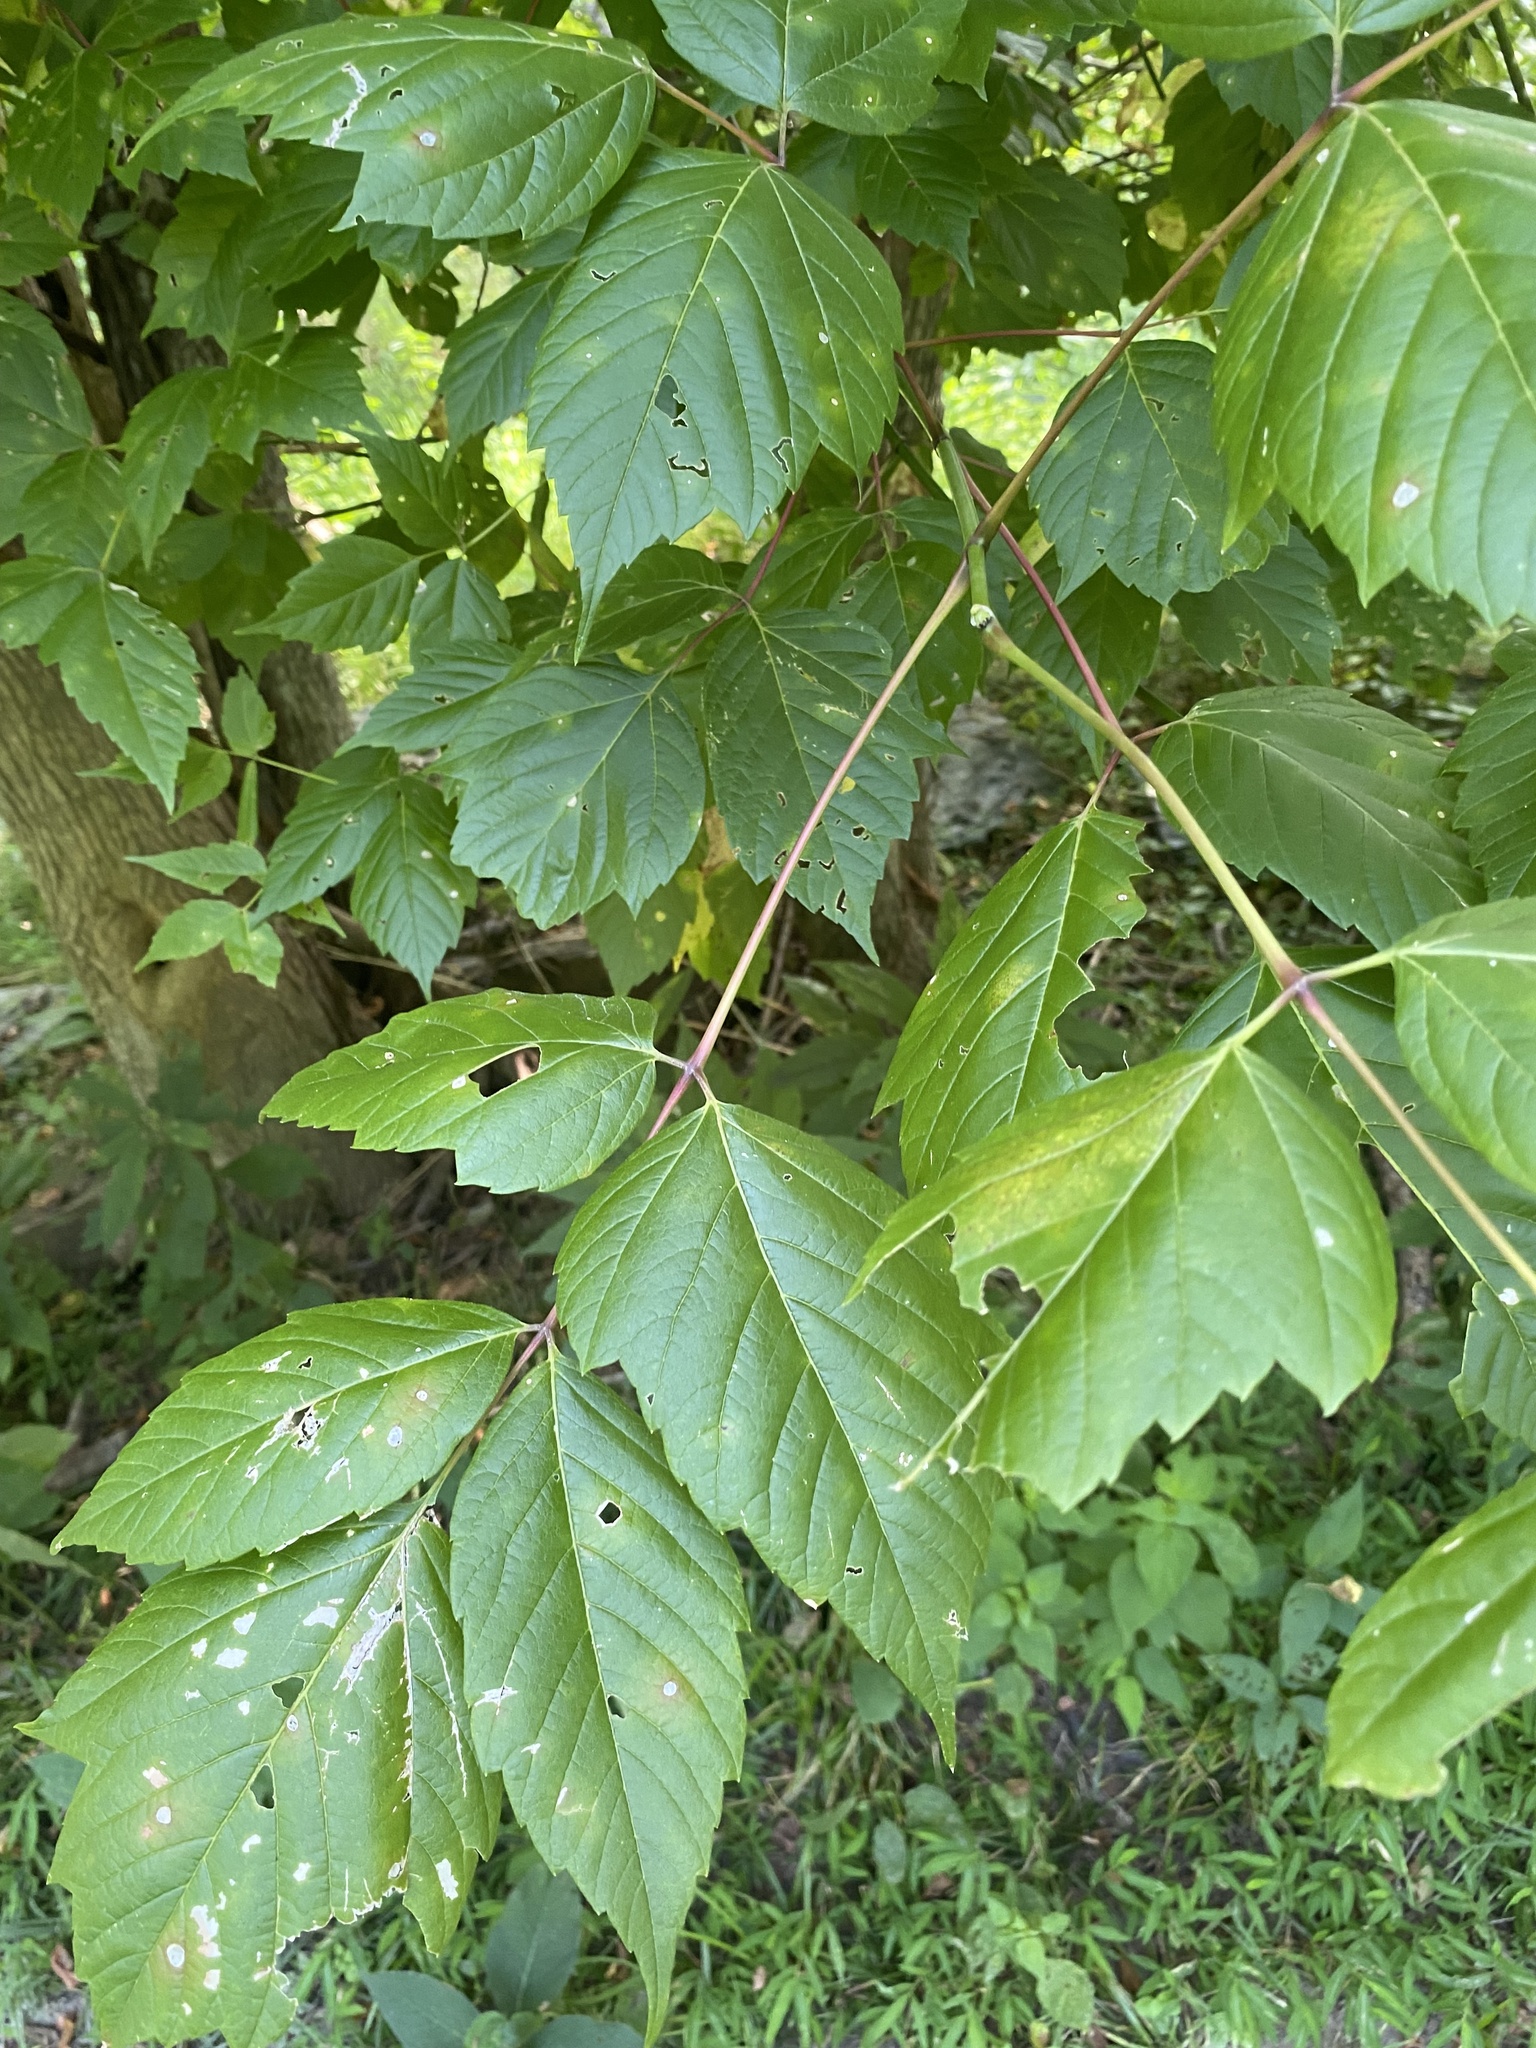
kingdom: Plantae
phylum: Tracheophyta
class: Magnoliopsida
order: Sapindales
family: Sapindaceae
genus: Acer
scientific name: Acer negundo
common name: Ashleaf maple
